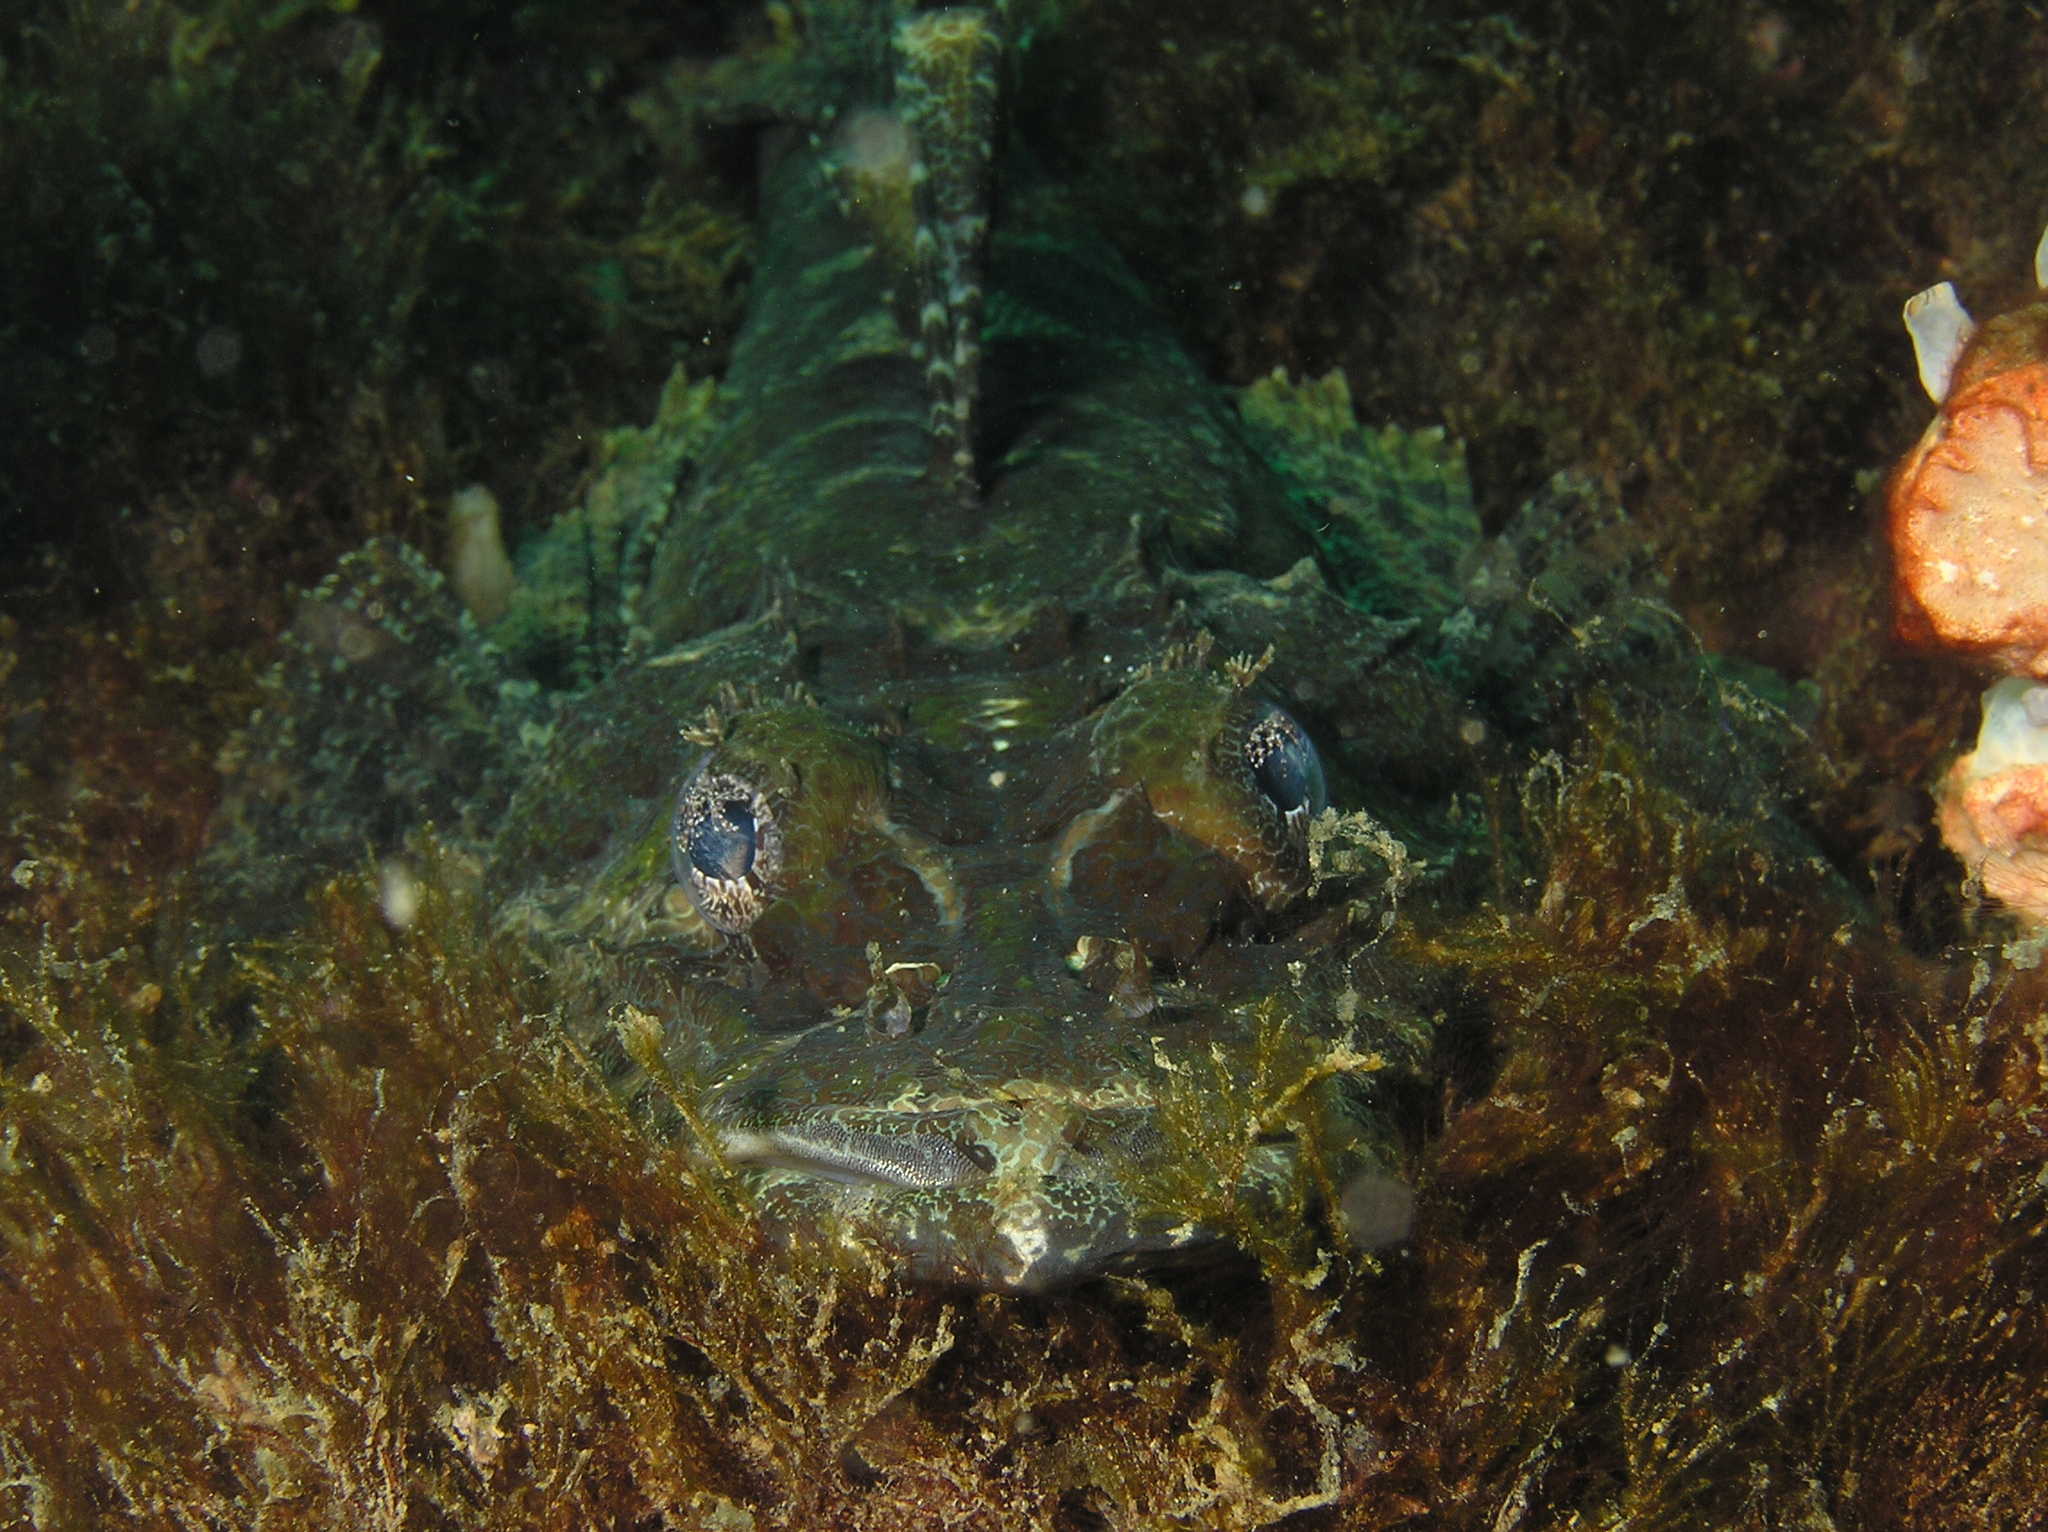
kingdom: Animalia
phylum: Chordata
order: Scorpaeniformes
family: Platycephalidae
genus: Cymbacephalus
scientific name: Cymbacephalus beauforti
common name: Crocodile fish
